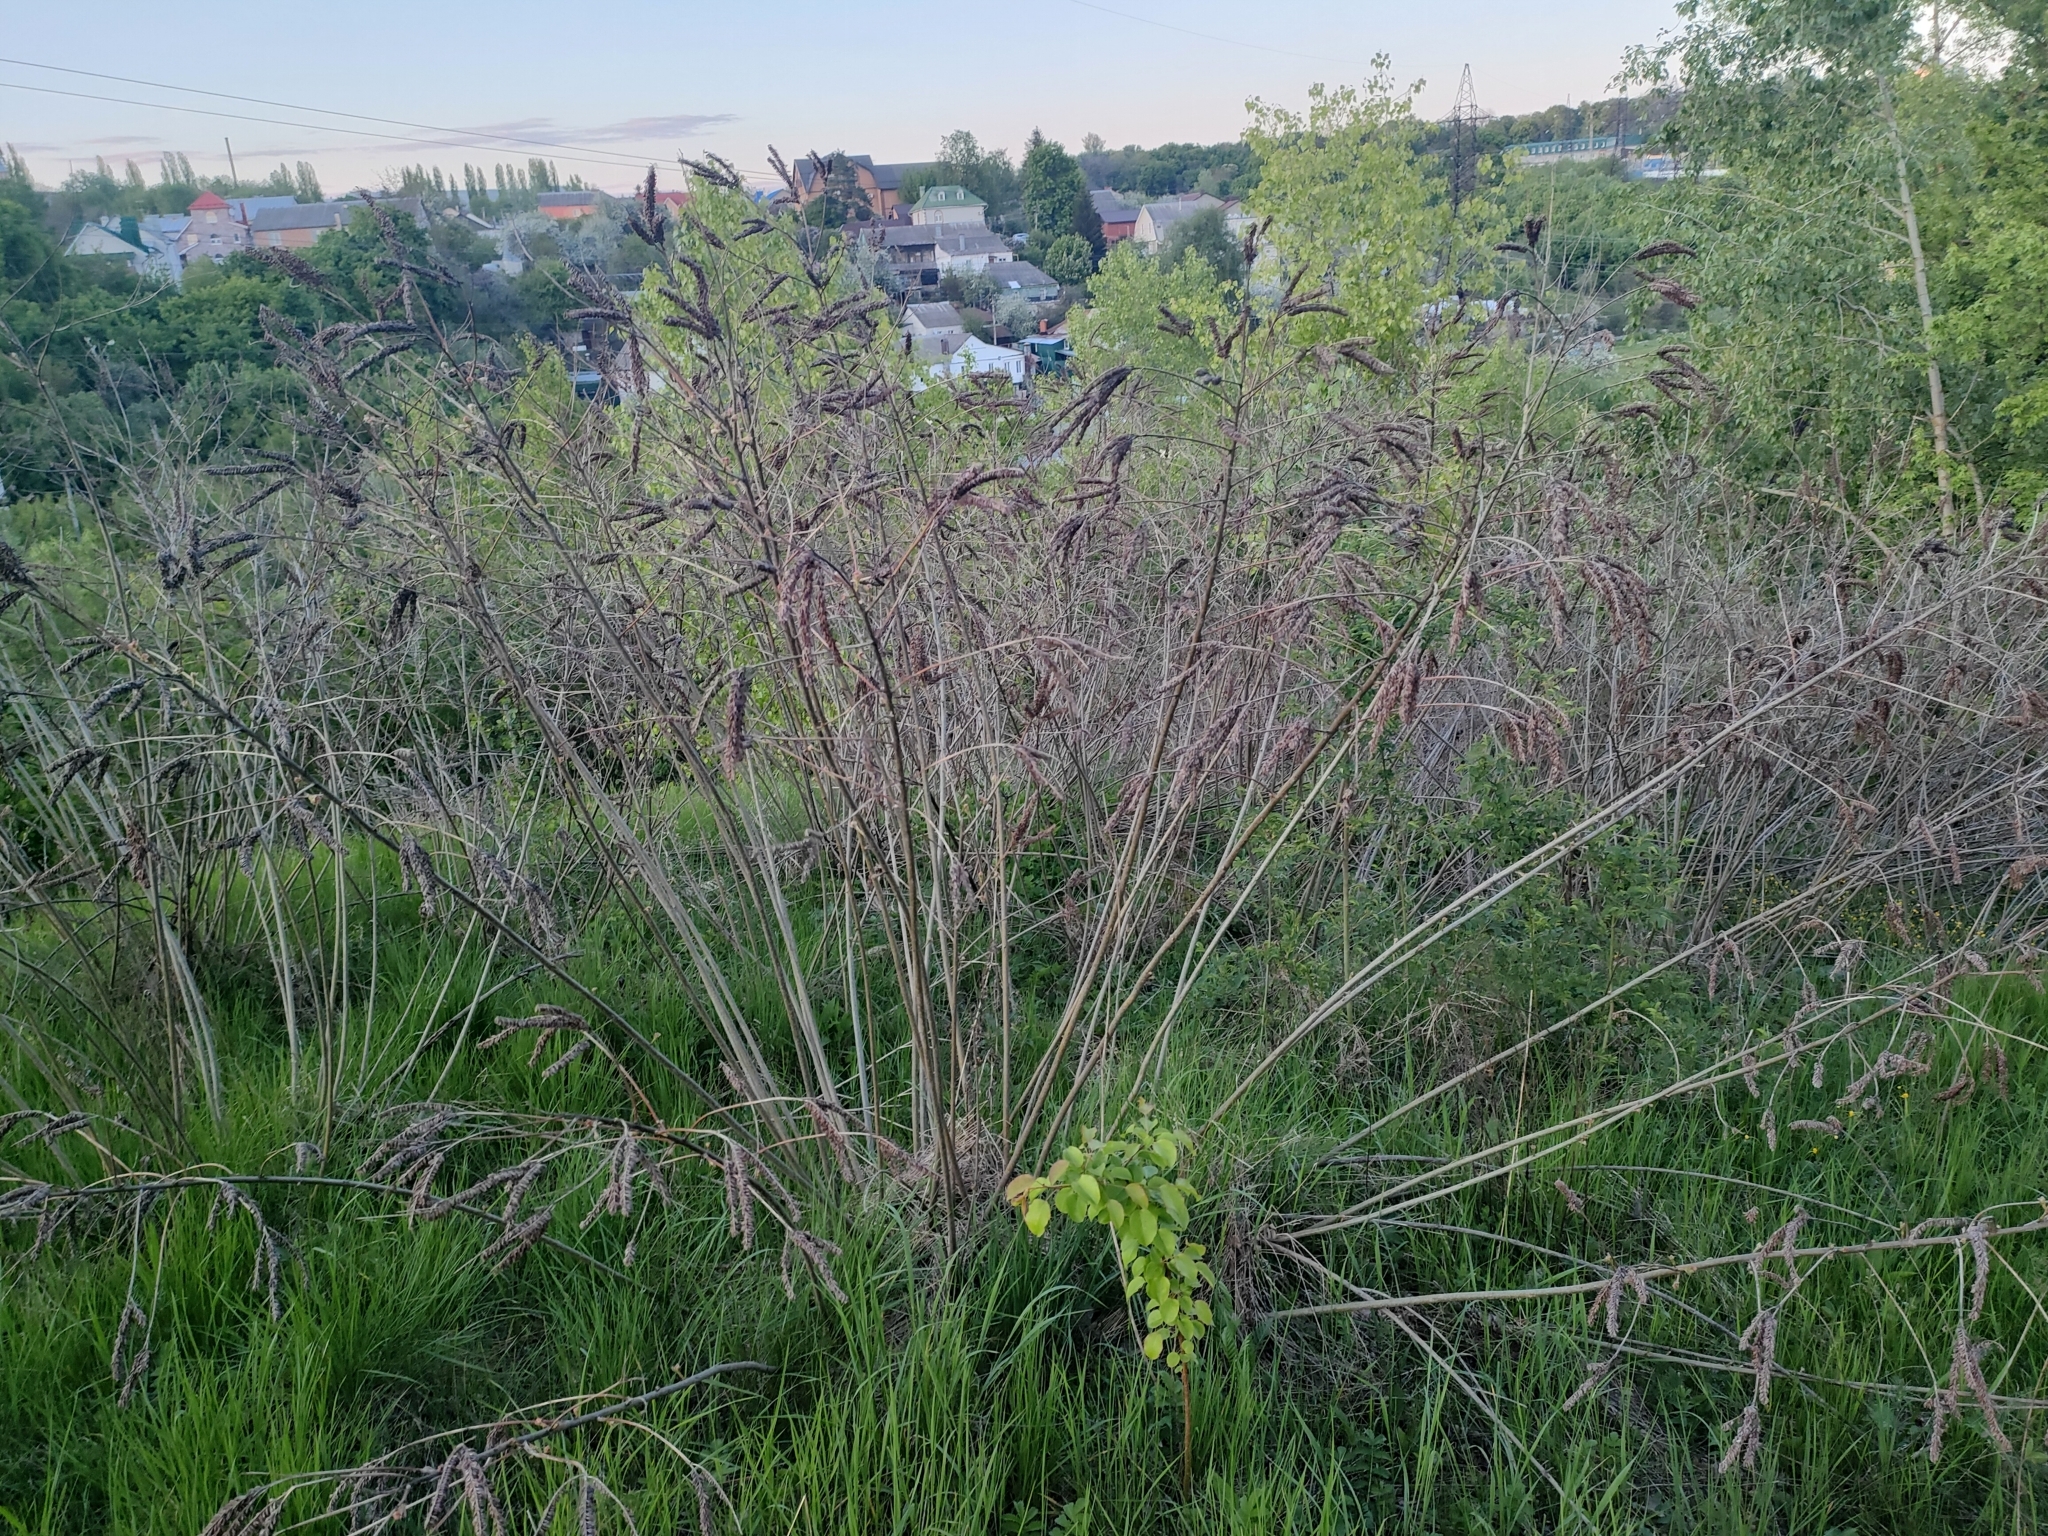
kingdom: Plantae
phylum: Tracheophyta
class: Magnoliopsida
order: Fabales
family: Fabaceae
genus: Amorpha
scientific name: Amorpha fruticosa
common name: False indigo
